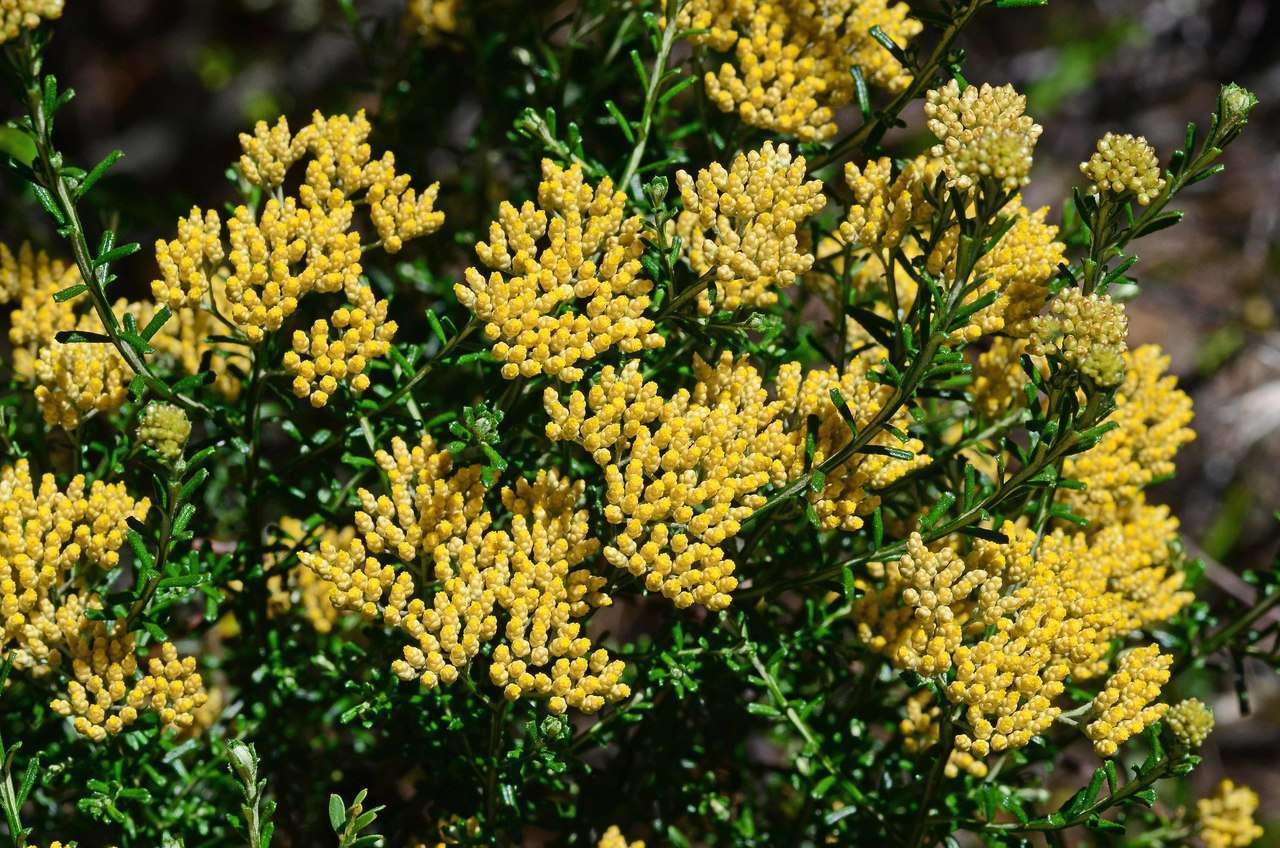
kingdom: Plantae
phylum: Tracheophyta
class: Magnoliopsida
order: Asterales
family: Asteraceae
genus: Ozothamnus
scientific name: Ozothamnus adnatus
